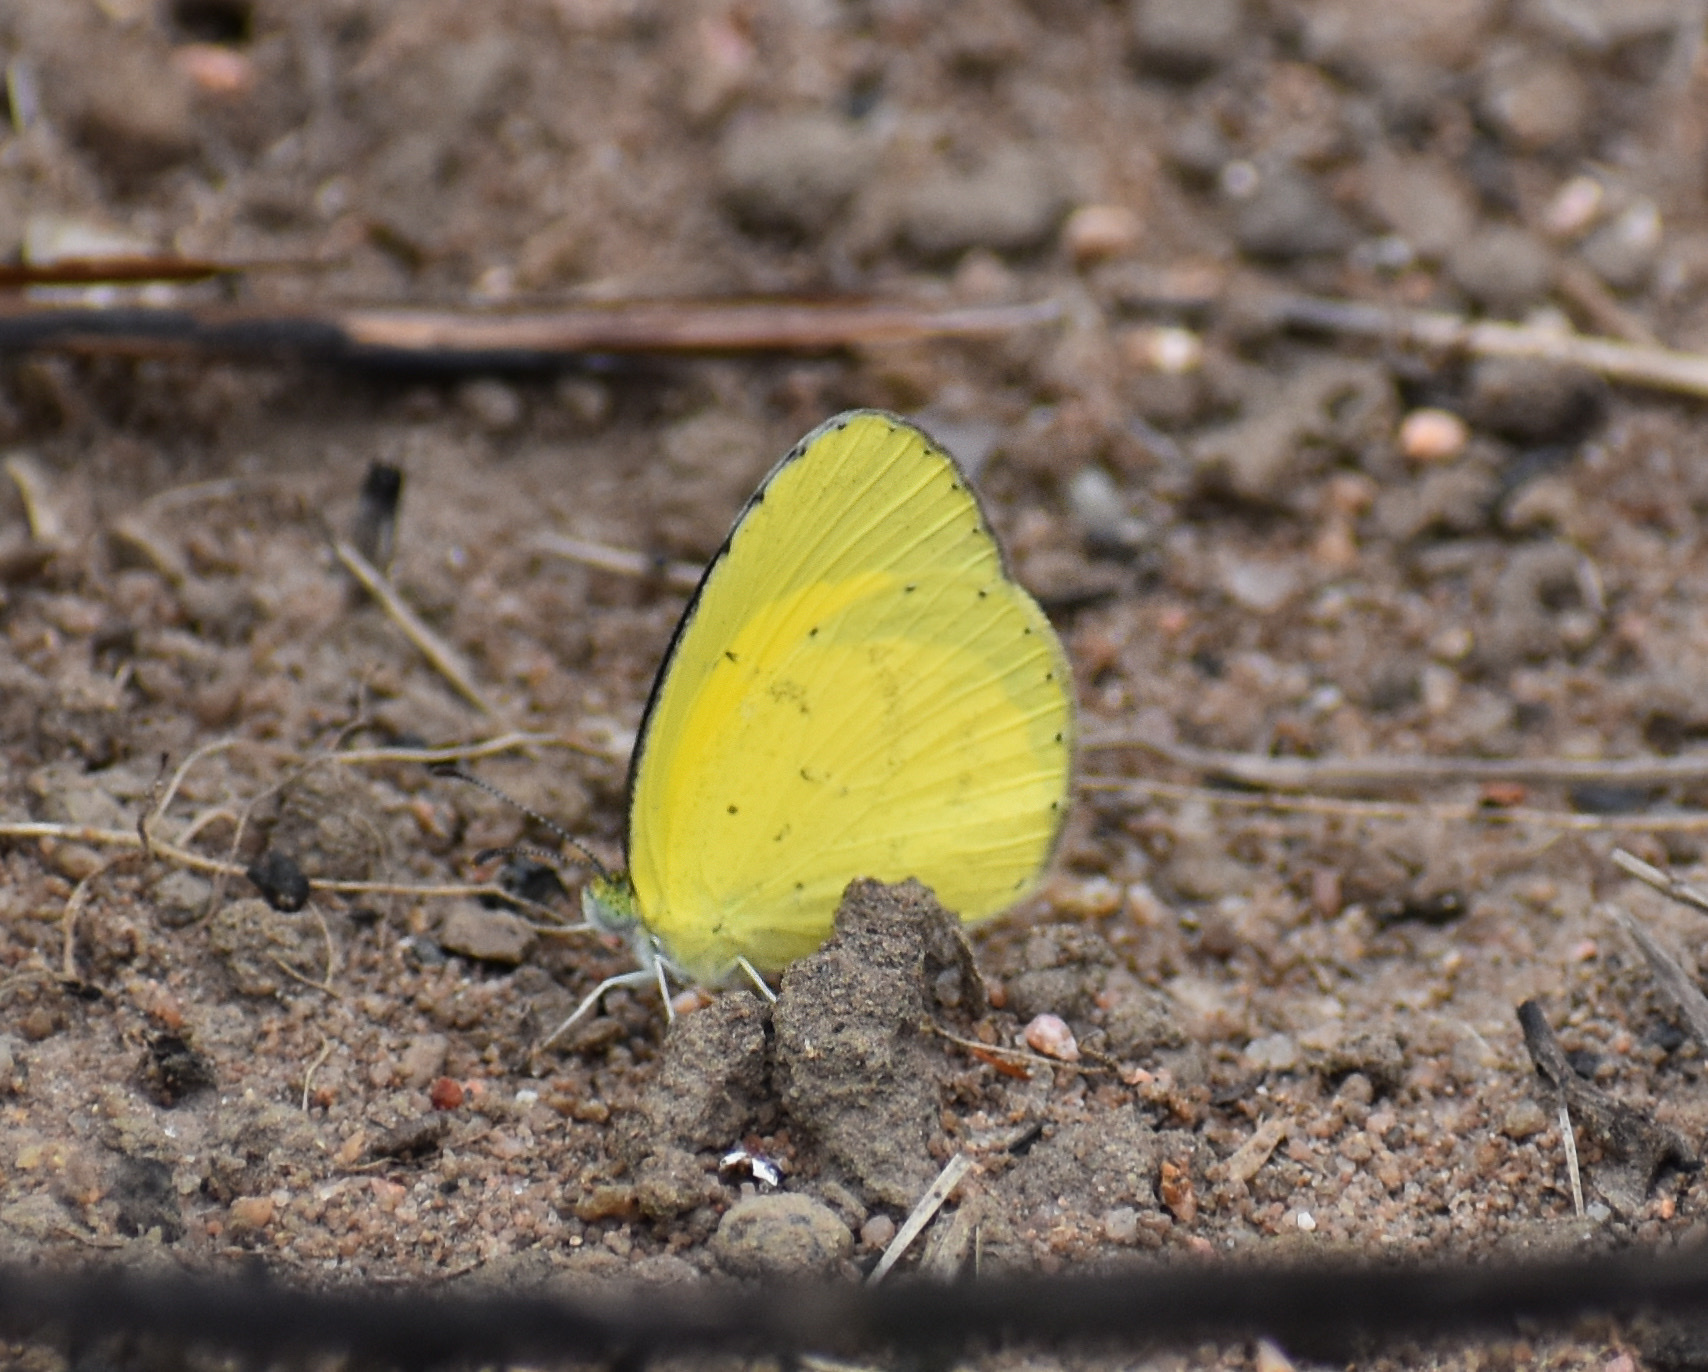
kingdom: Animalia
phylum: Arthropoda
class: Insecta
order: Lepidoptera
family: Pieridae
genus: Eurema
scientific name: Eurema brigitta
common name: Small grass yellow
